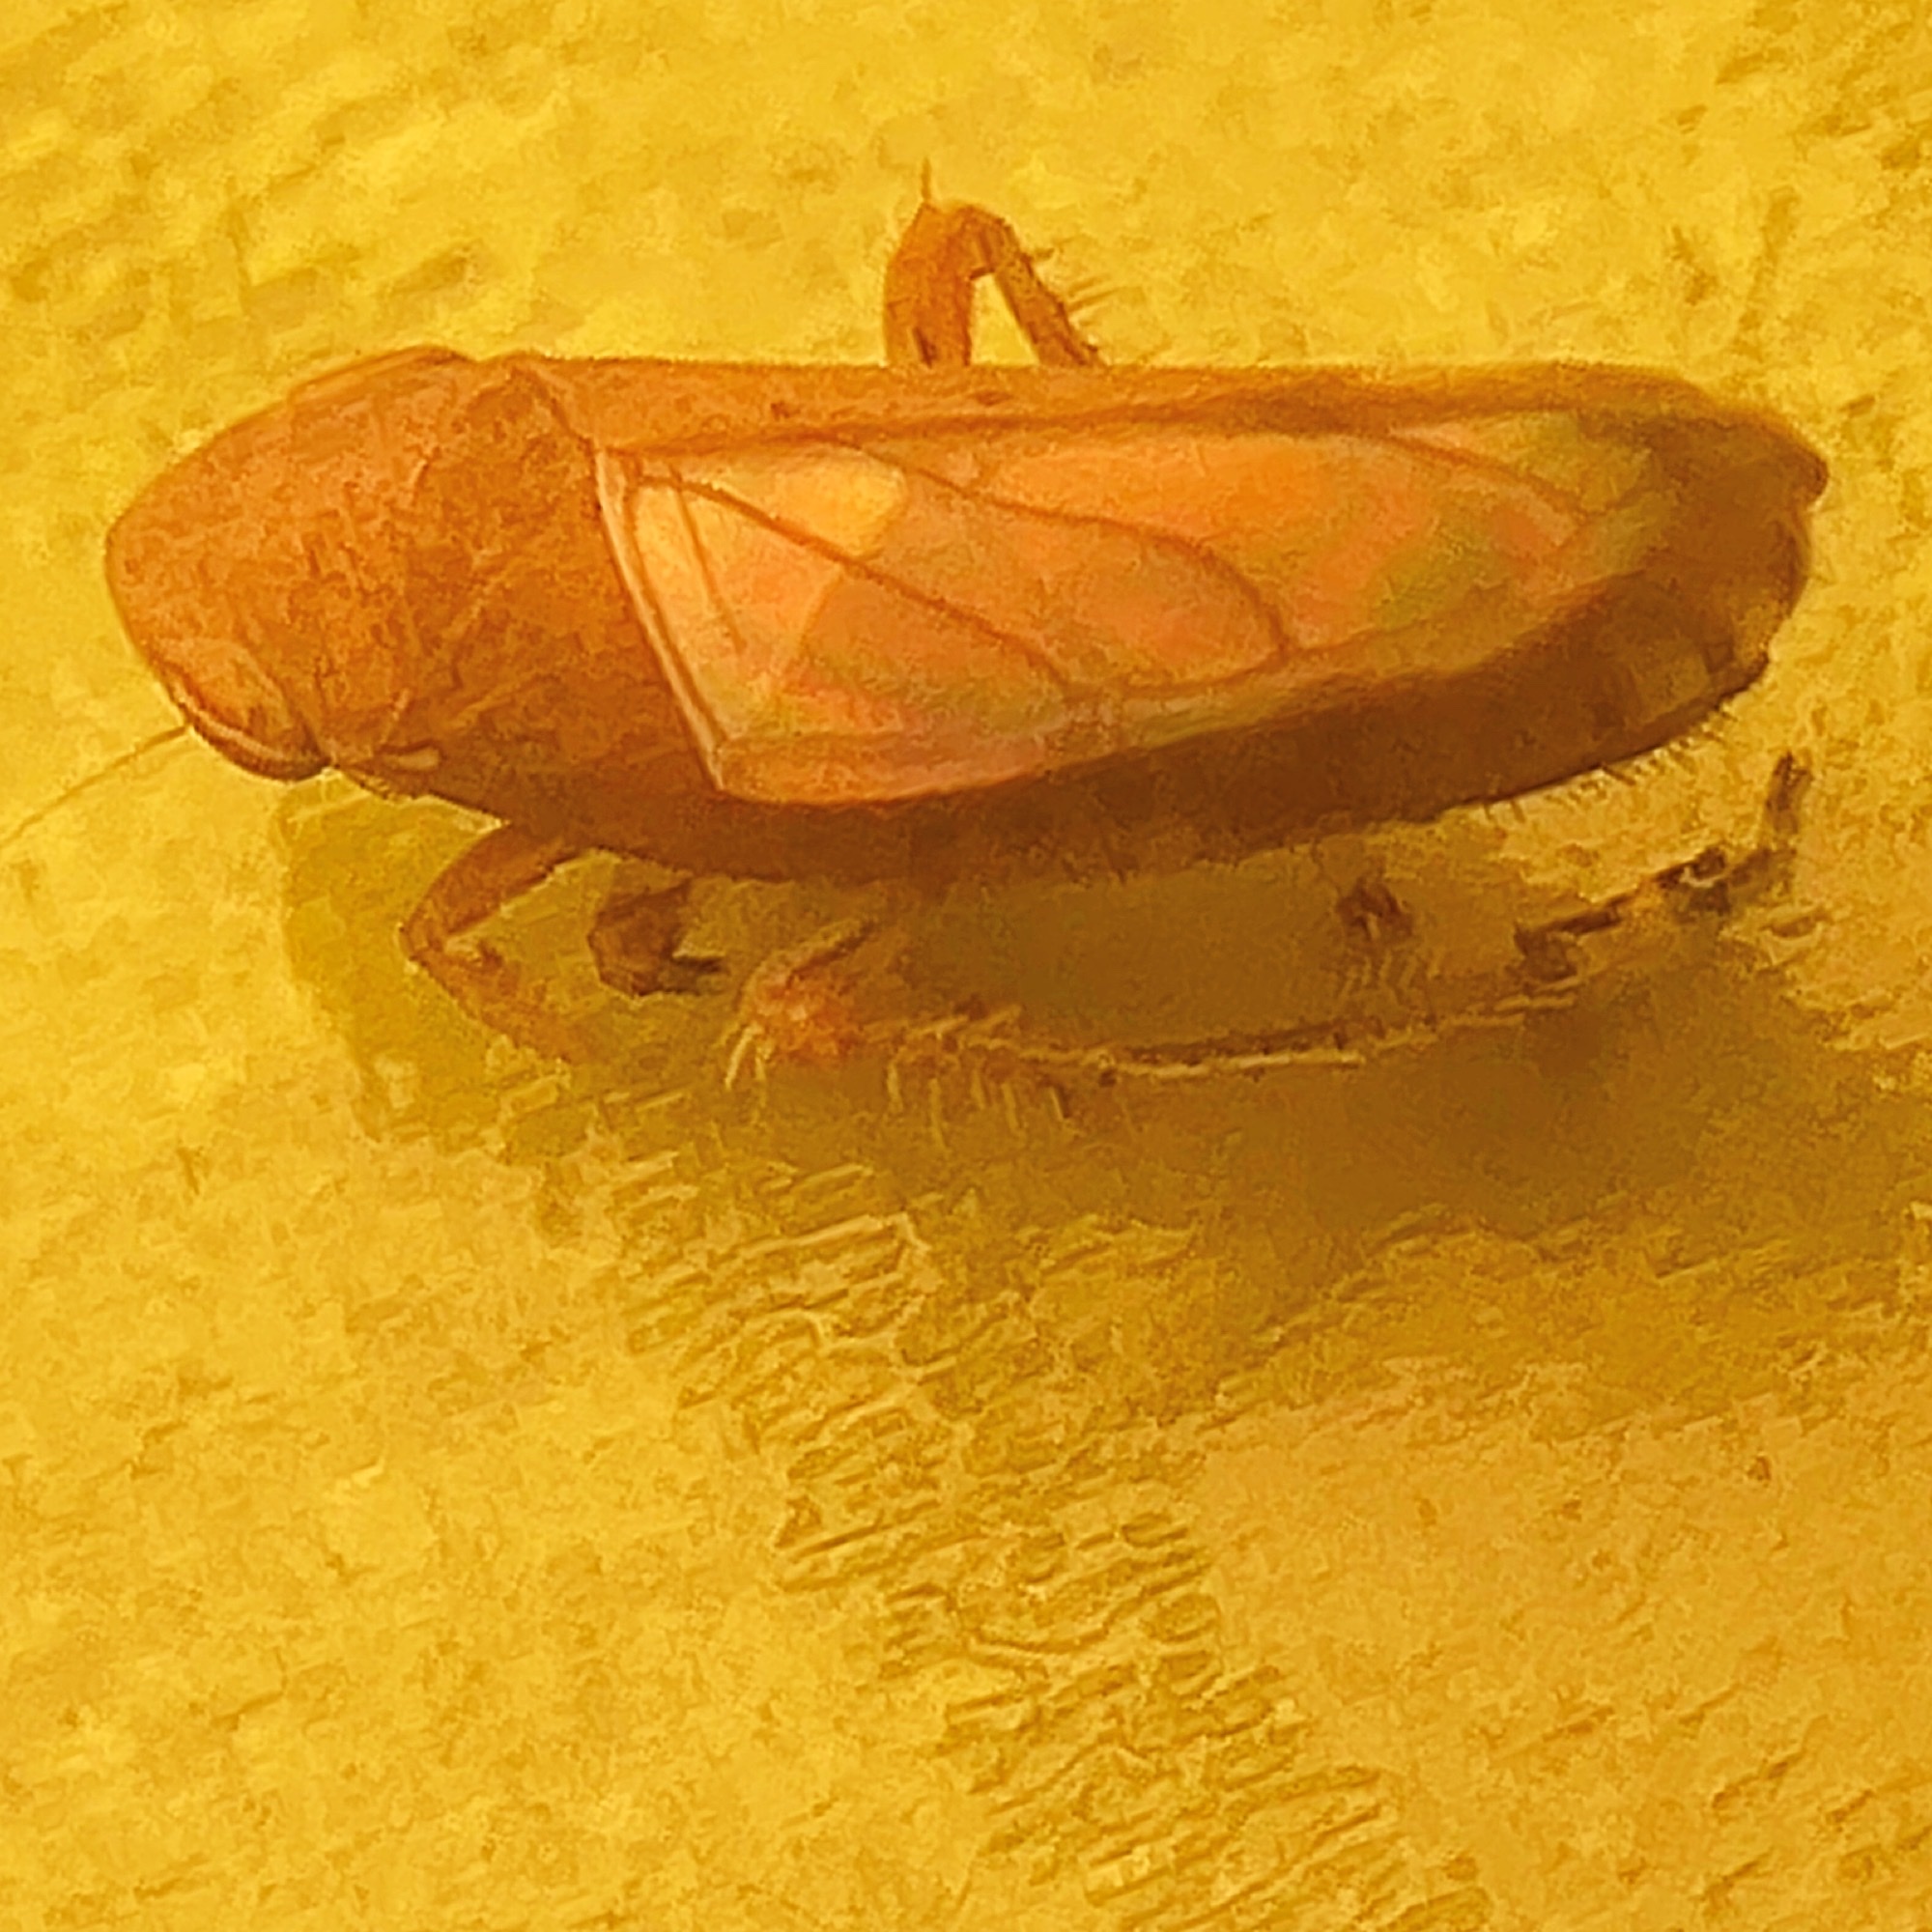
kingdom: Animalia
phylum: Arthropoda
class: Insecta
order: Hemiptera
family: Cicadellidae
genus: Fieberiella
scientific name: Fieberiella florii
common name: Flor’s leafhopper
